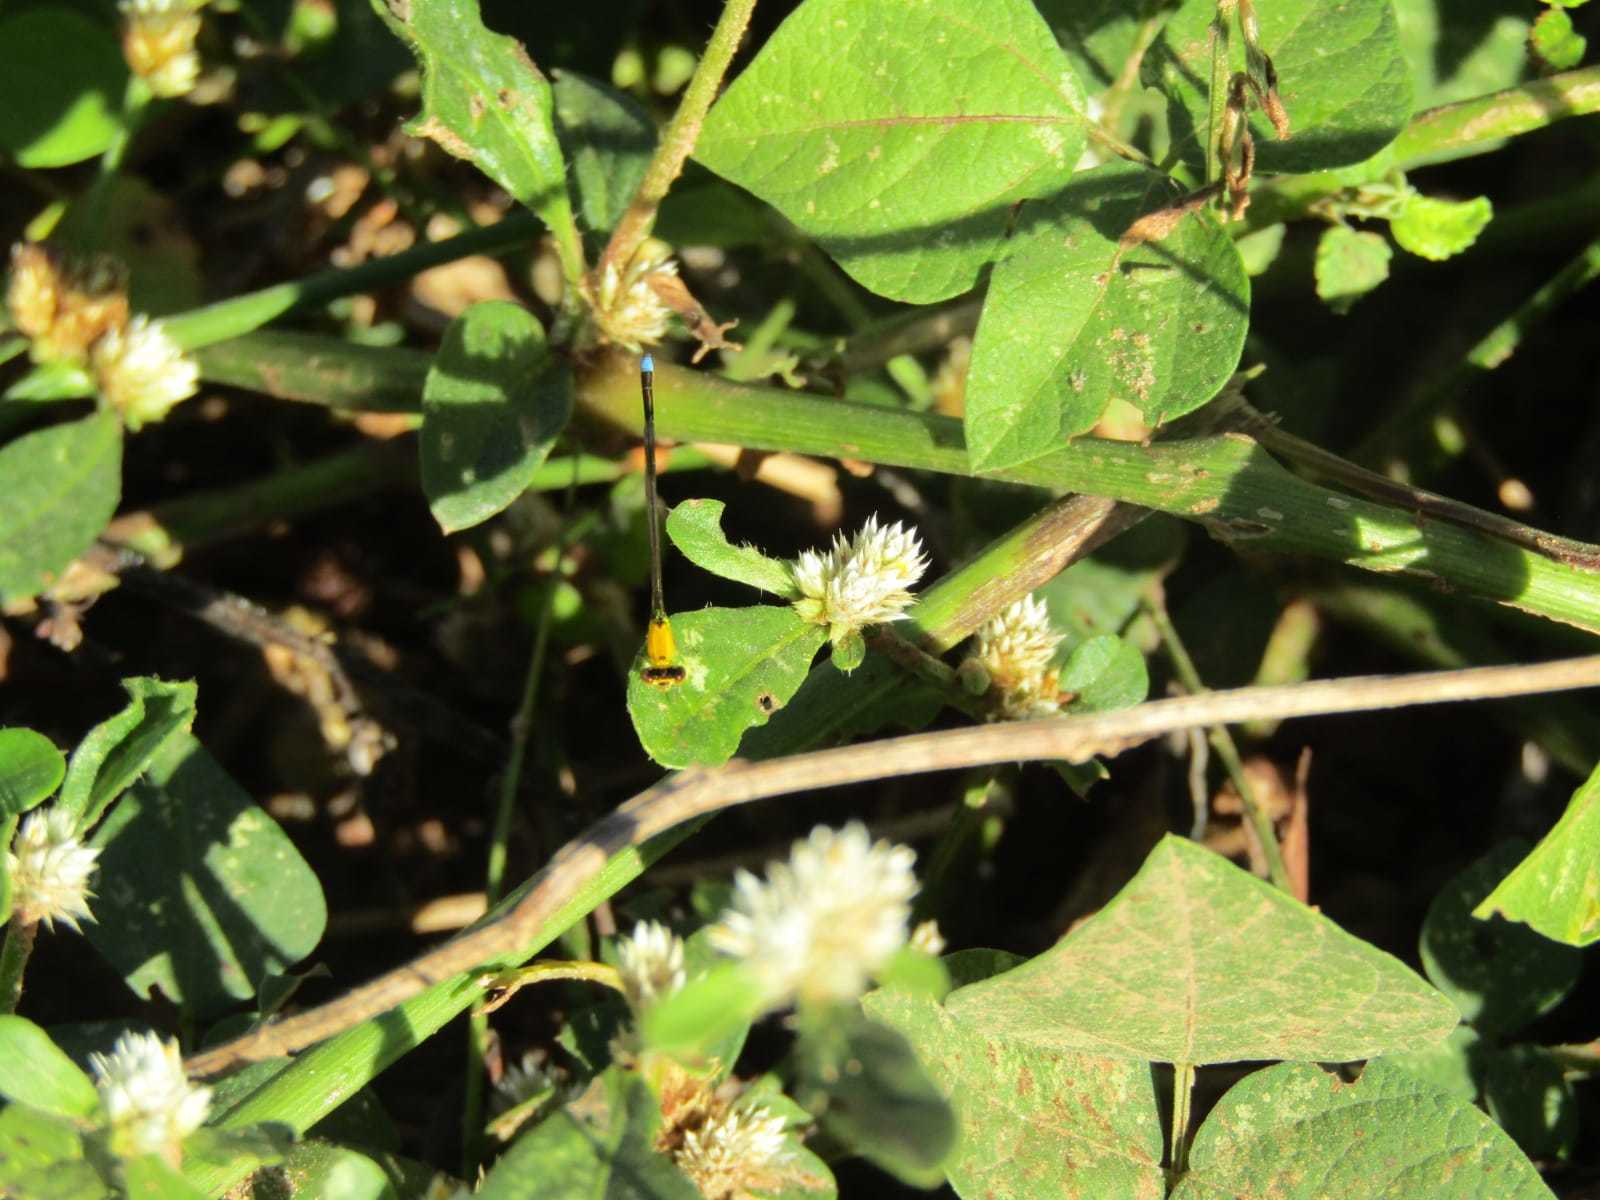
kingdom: Animalia
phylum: Arthropoda
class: Insecta
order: Odonata
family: Coenagrionidae
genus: Ischnura
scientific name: Ischnura capreolus
